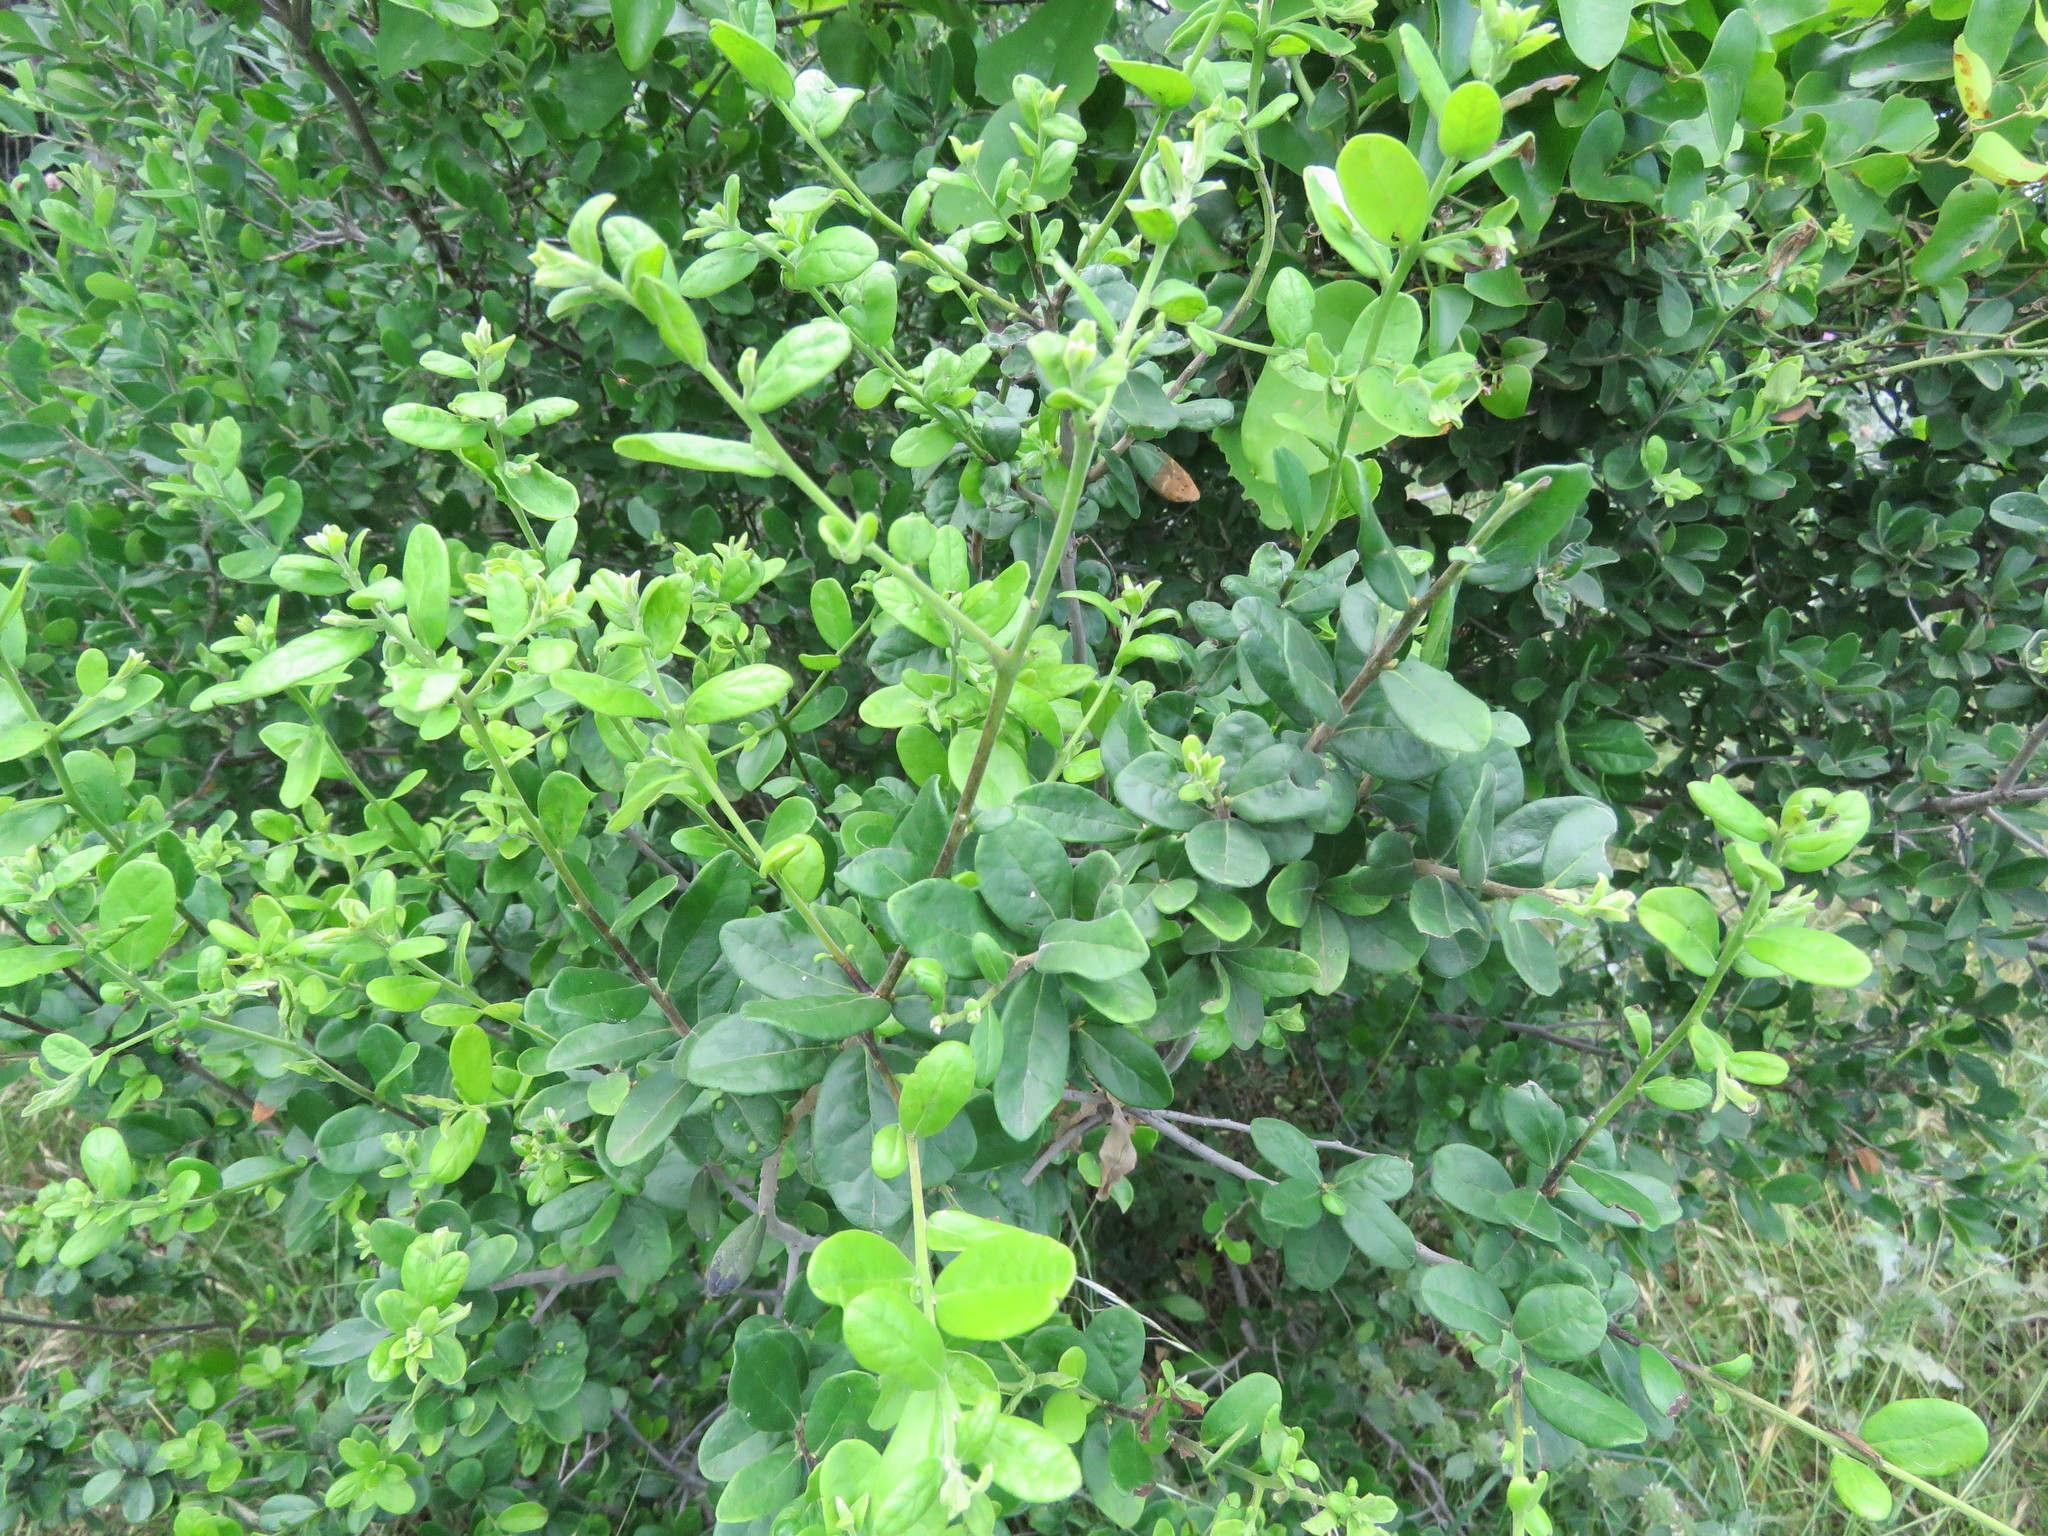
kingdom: Plantae
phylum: Tracheophyta
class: Magnoliopsida
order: Ericales
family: Ebenaceae
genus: Diospyros
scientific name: Diospyros texana
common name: Texas persimmon
